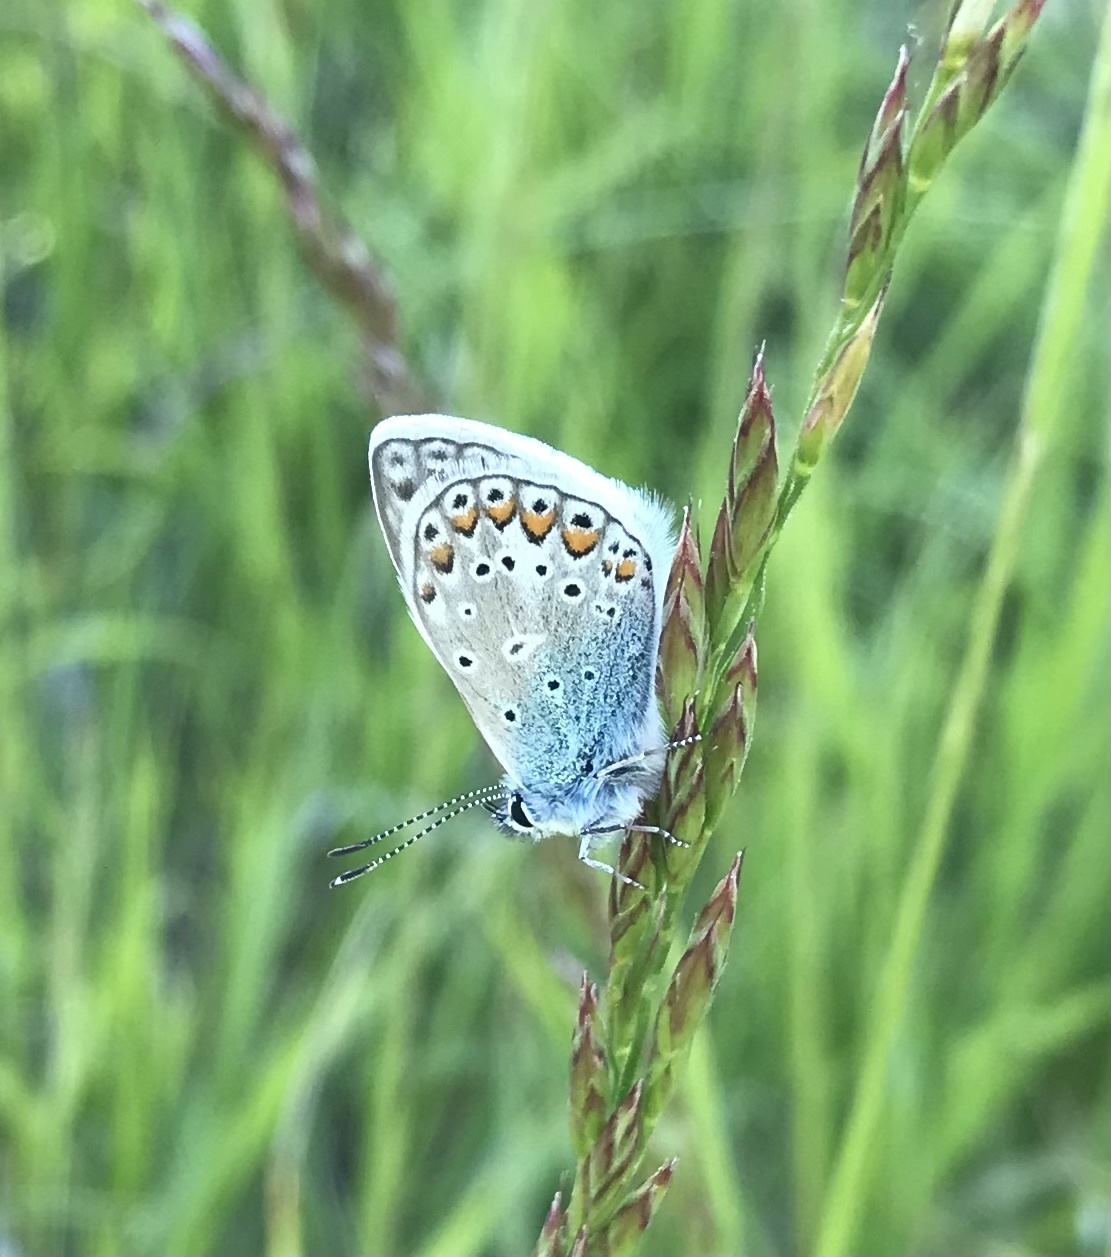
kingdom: Animalia
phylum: Arthropoda
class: Insecta
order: Lepidoptera
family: Lycaenidae
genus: Polyommatus
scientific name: Polyommatus icarus
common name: Common blue
